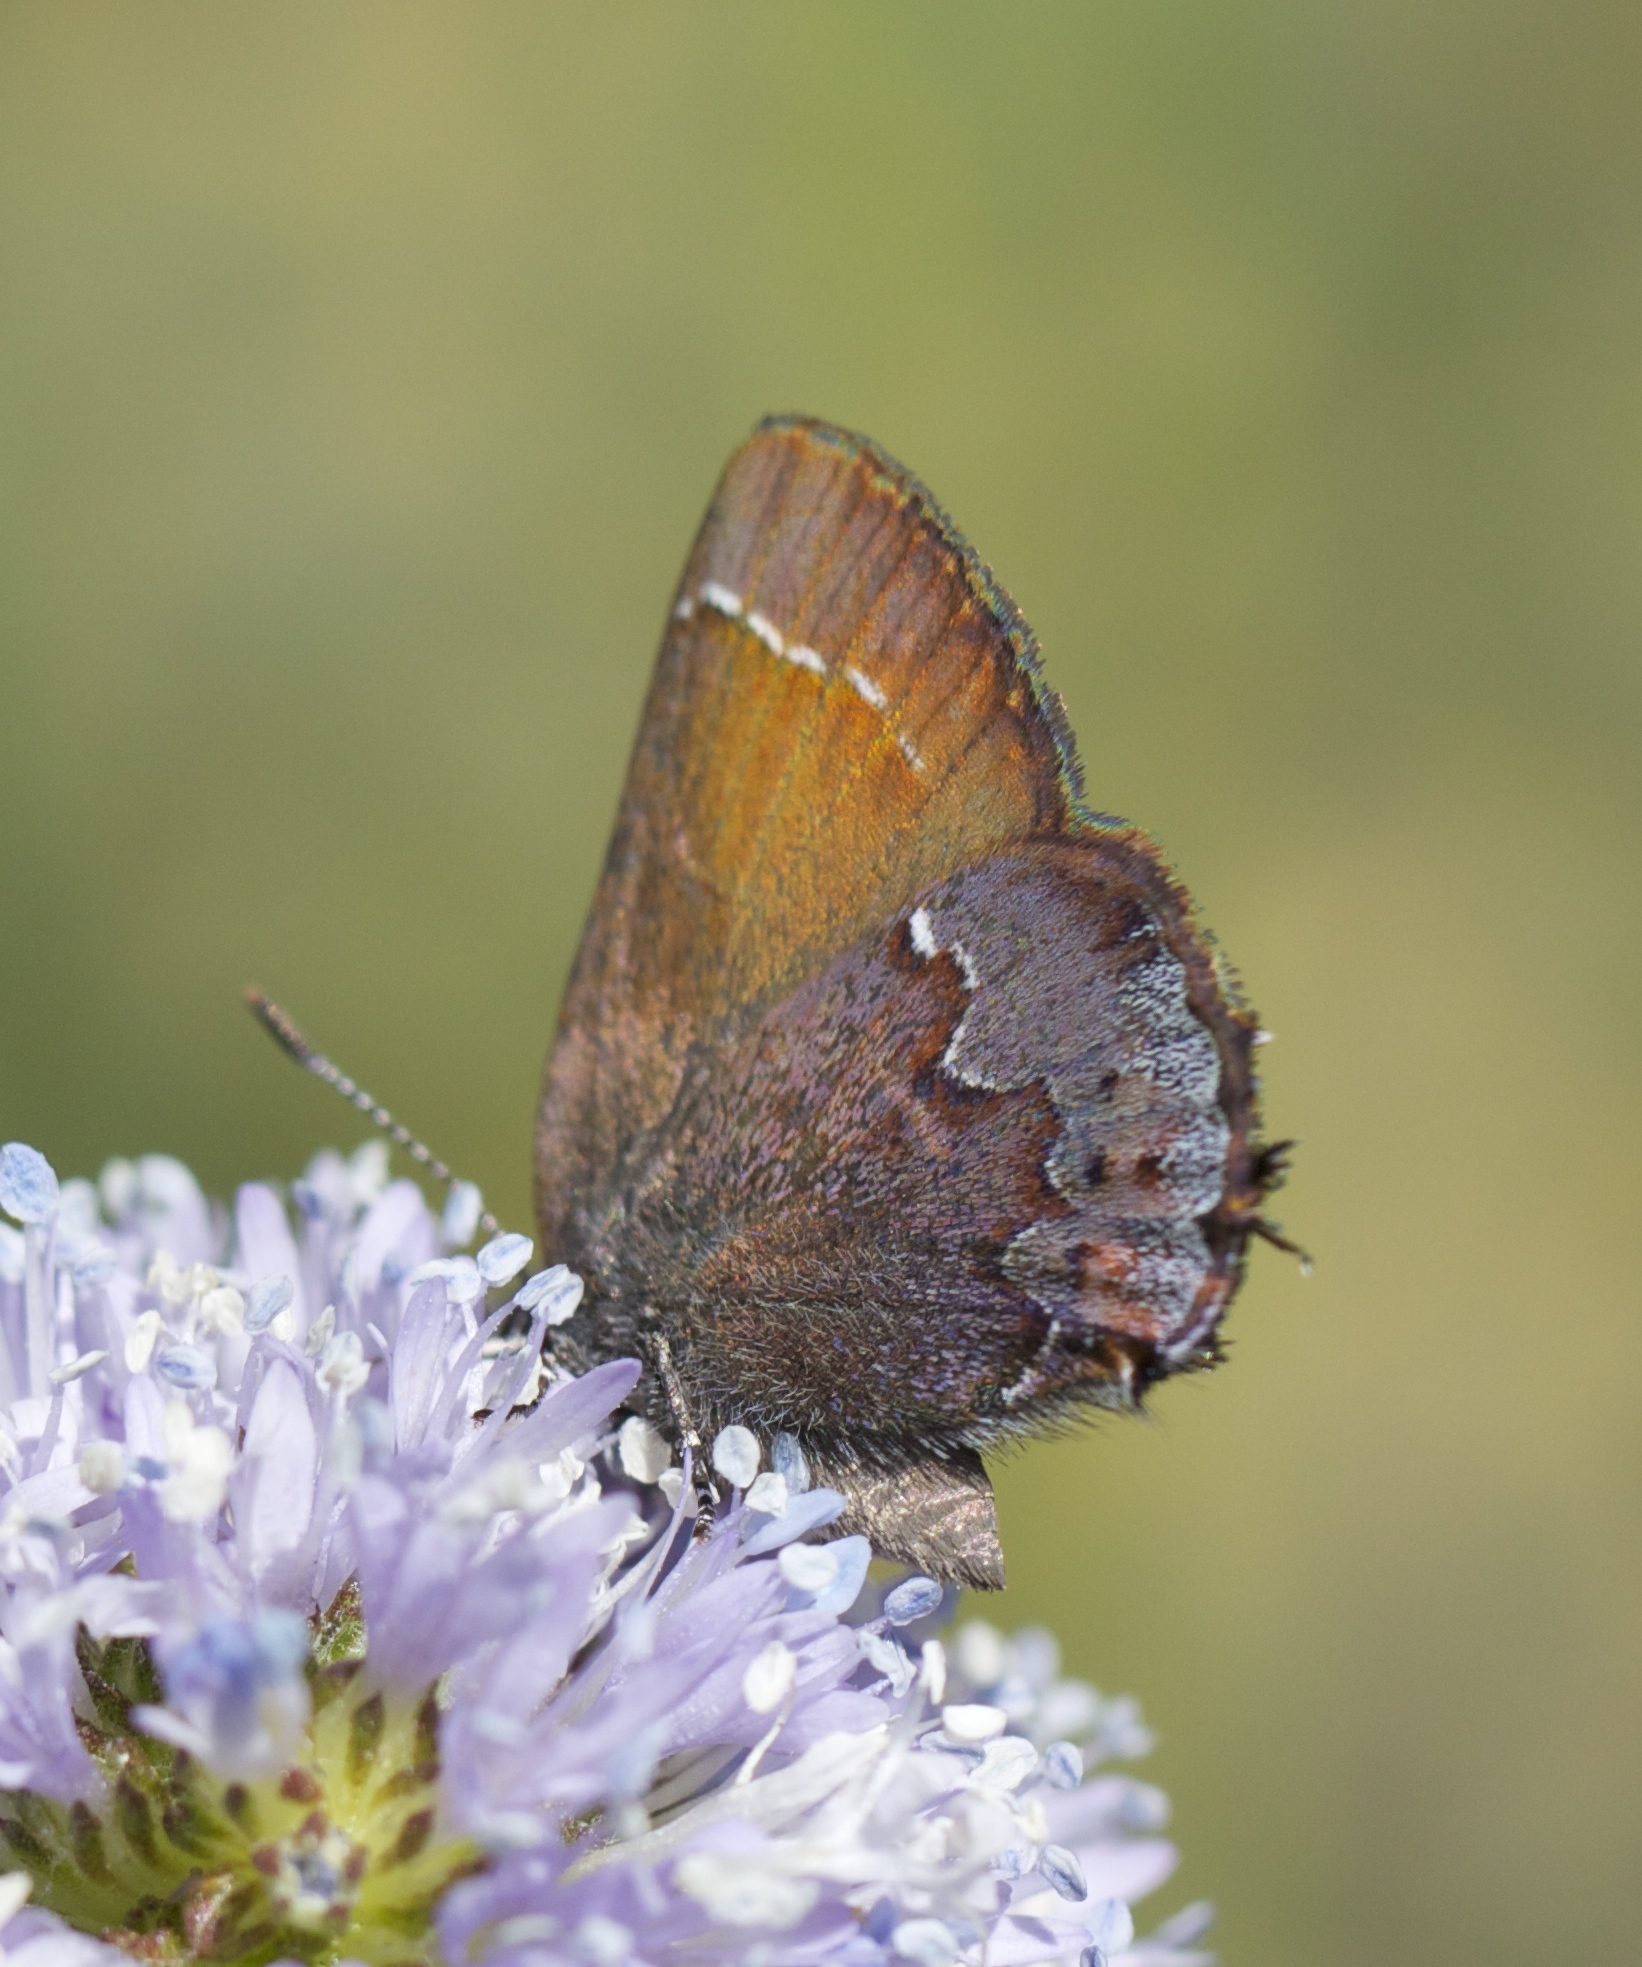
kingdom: Animalia
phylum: Arthropoda
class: Insecta
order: Lepidoptera
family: Lycaenidae
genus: Callophrys
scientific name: Callophrys muiri
